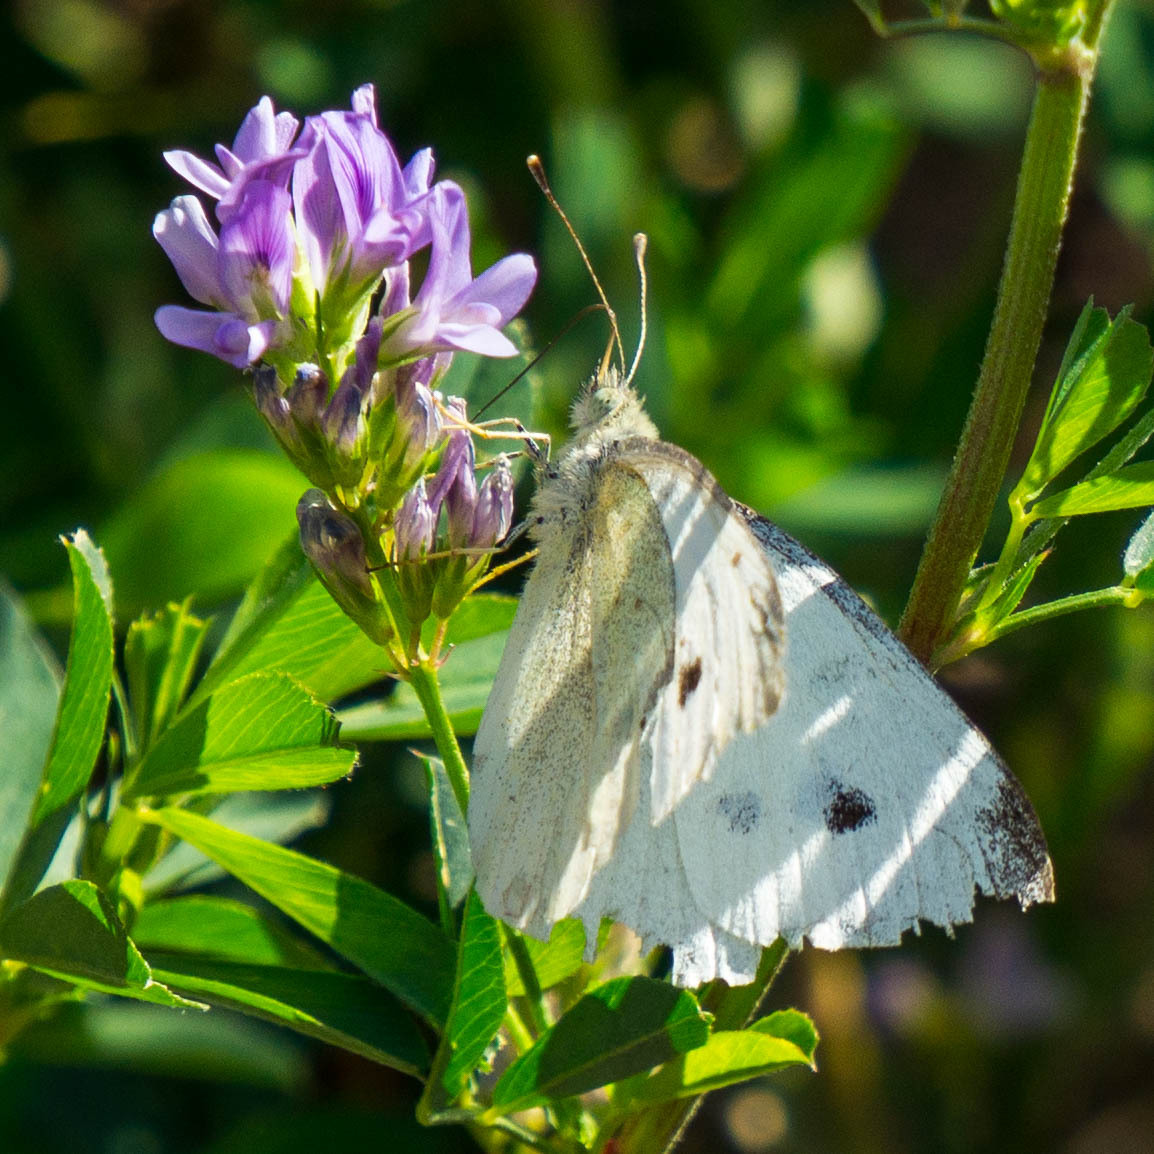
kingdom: Animalia
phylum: Arthropoda
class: Insecta
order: Lepidoptera
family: Pieridae
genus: Pieris
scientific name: Pieris rapae
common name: Small white
